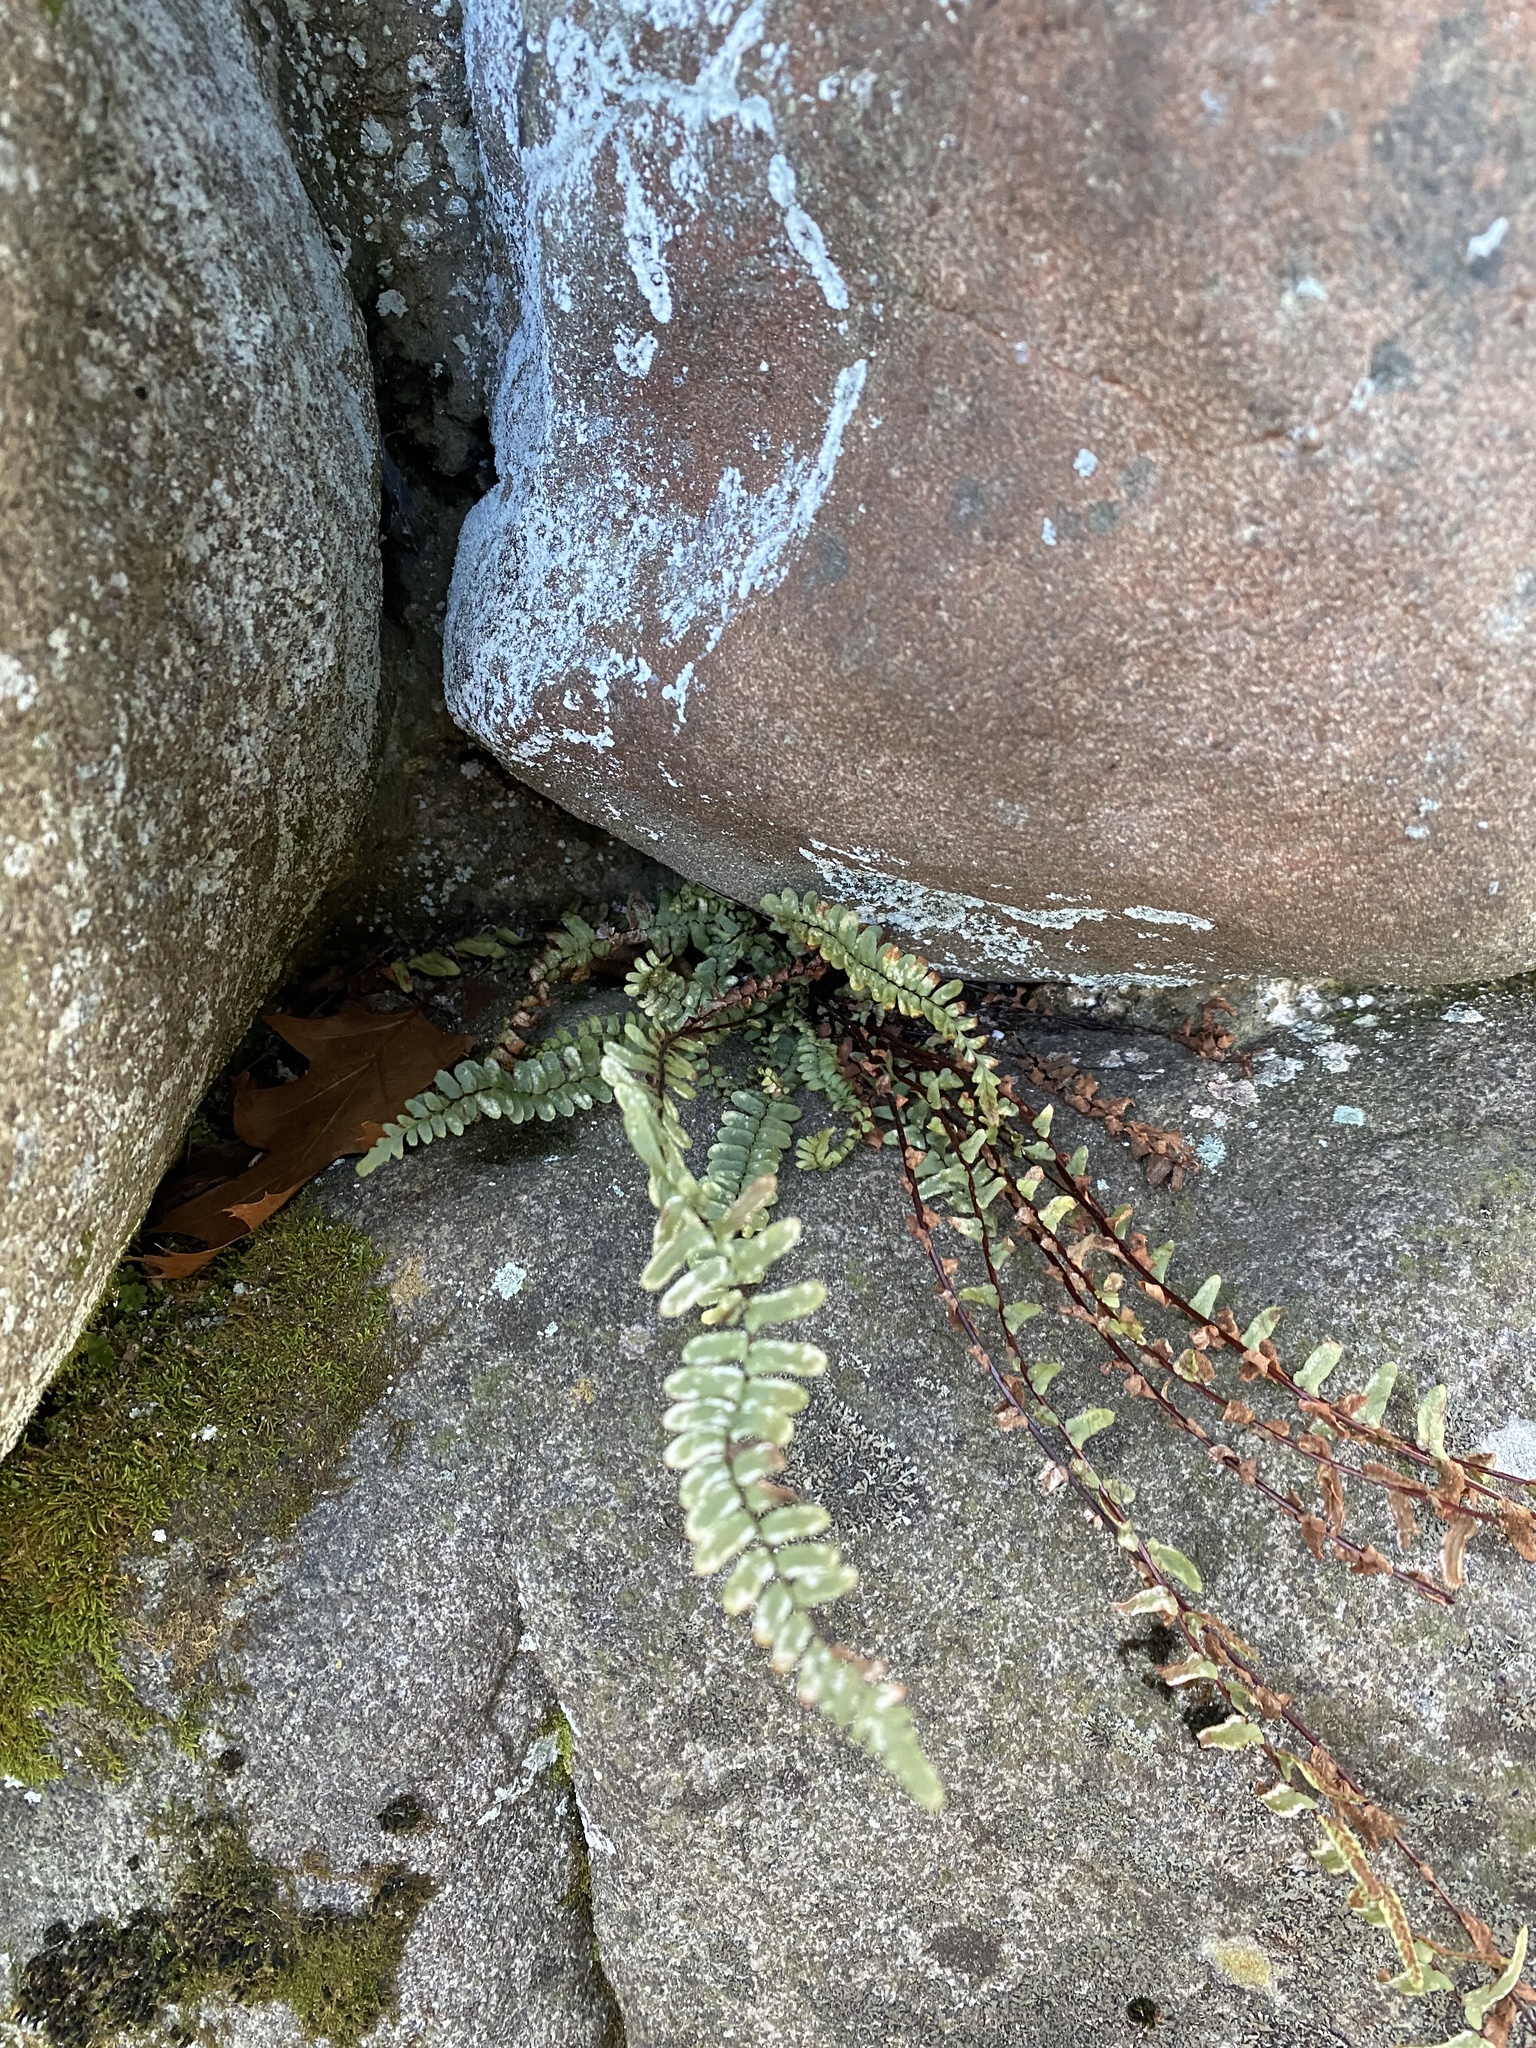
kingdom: Plantae
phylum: Tracheophyta
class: Polypodiopsida
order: Polypodiales
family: Aspleniaceae
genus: Asplenium
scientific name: Asplenium platyneuron
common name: Ebony spleenwort
